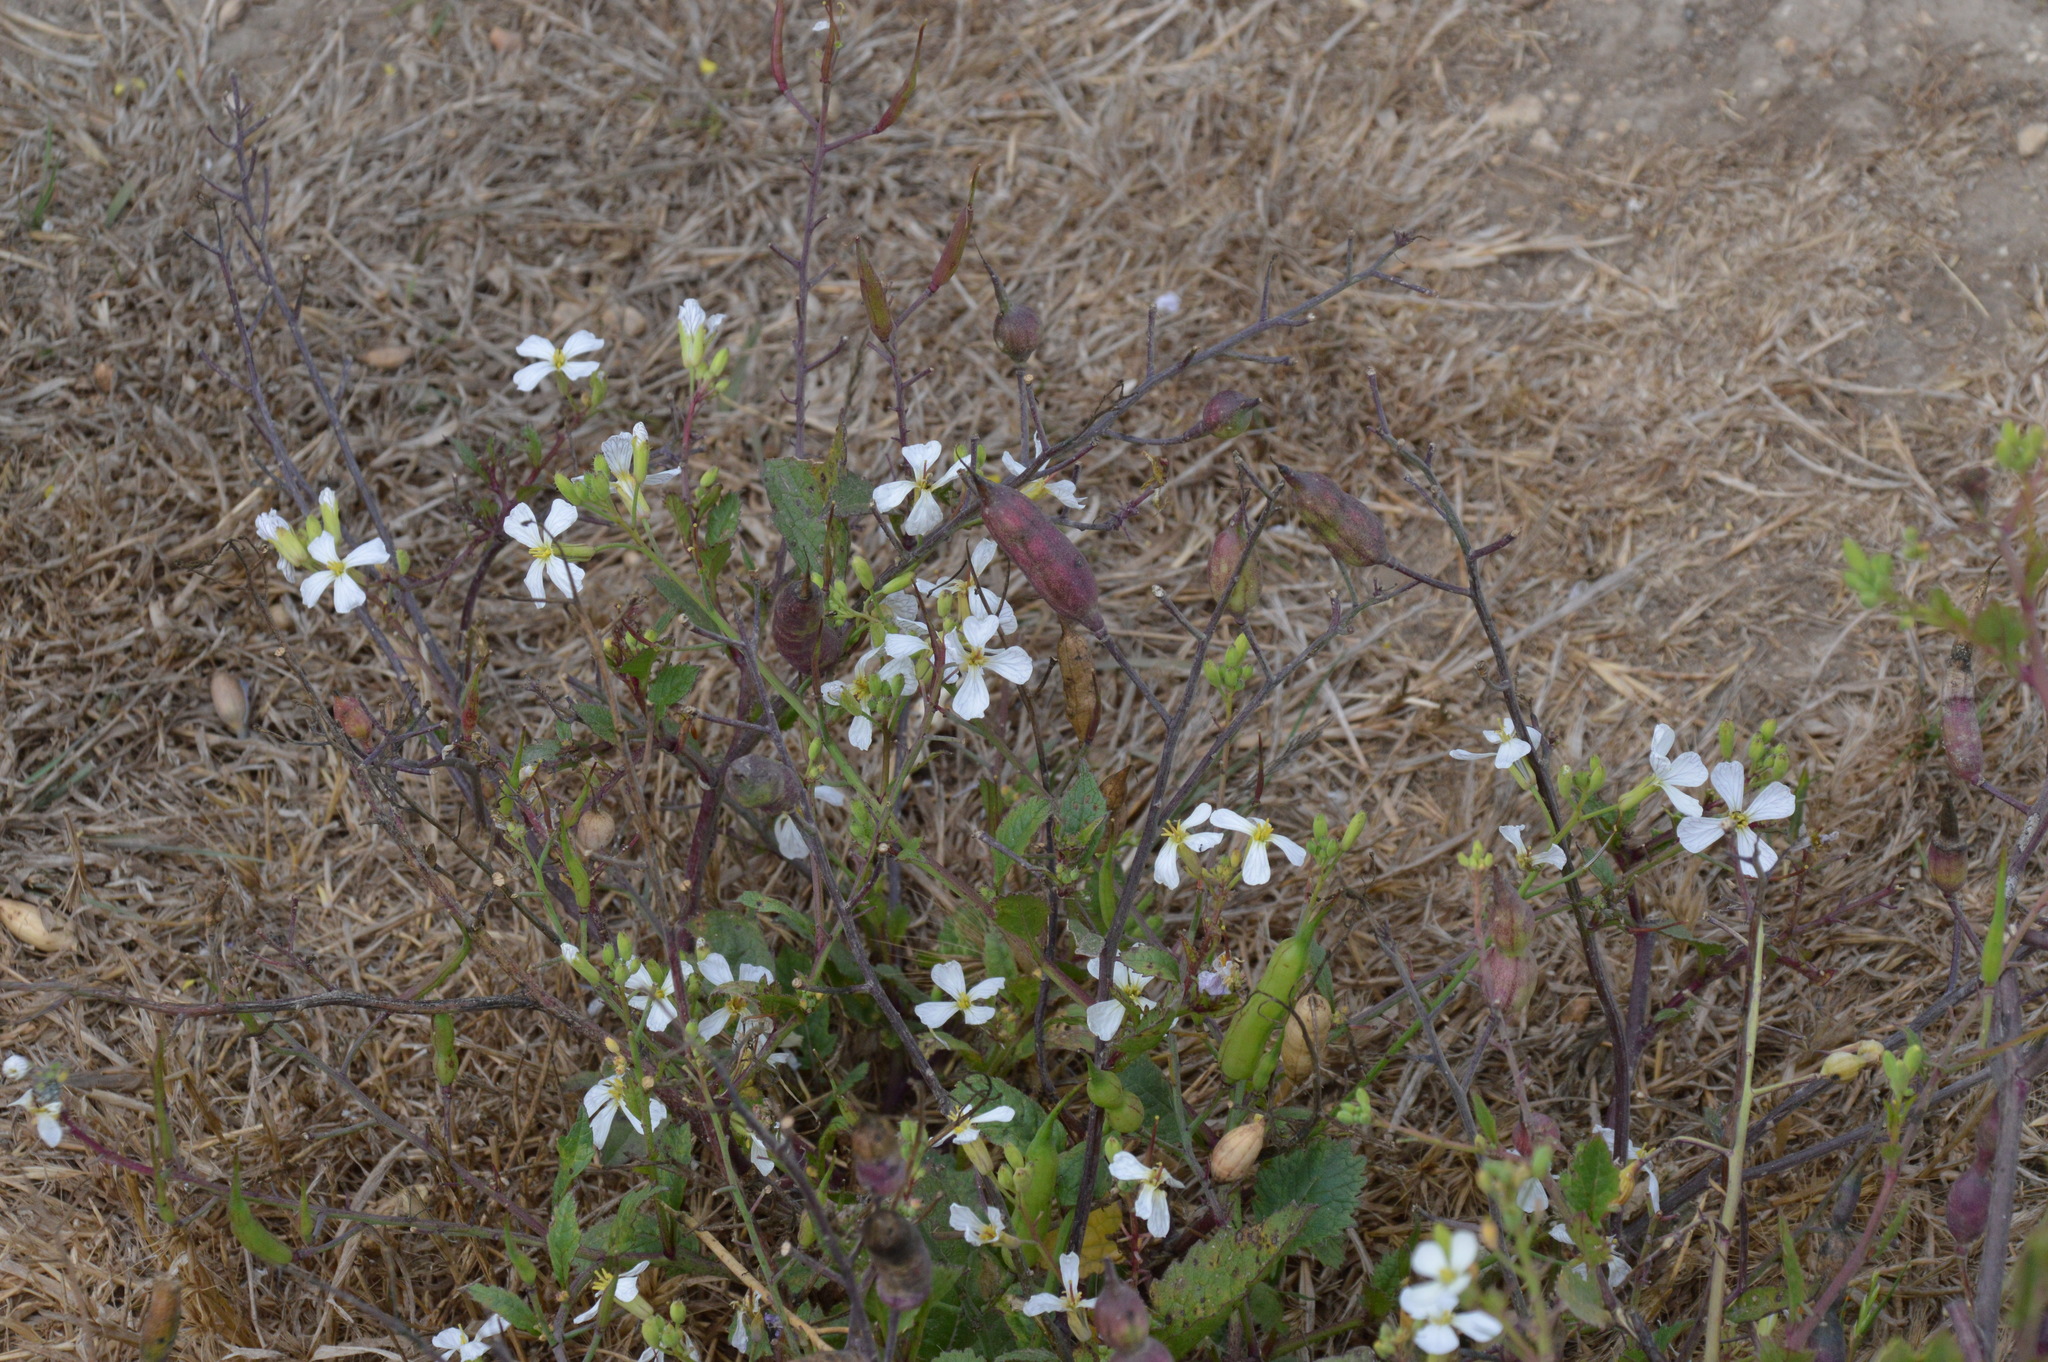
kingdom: Plantae
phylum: Tracheophyta
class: Magnoliopsida
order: Brassicales
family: Brassicaceae
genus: Raphanus
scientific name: Raphanus sativus
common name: Cultivated radish
